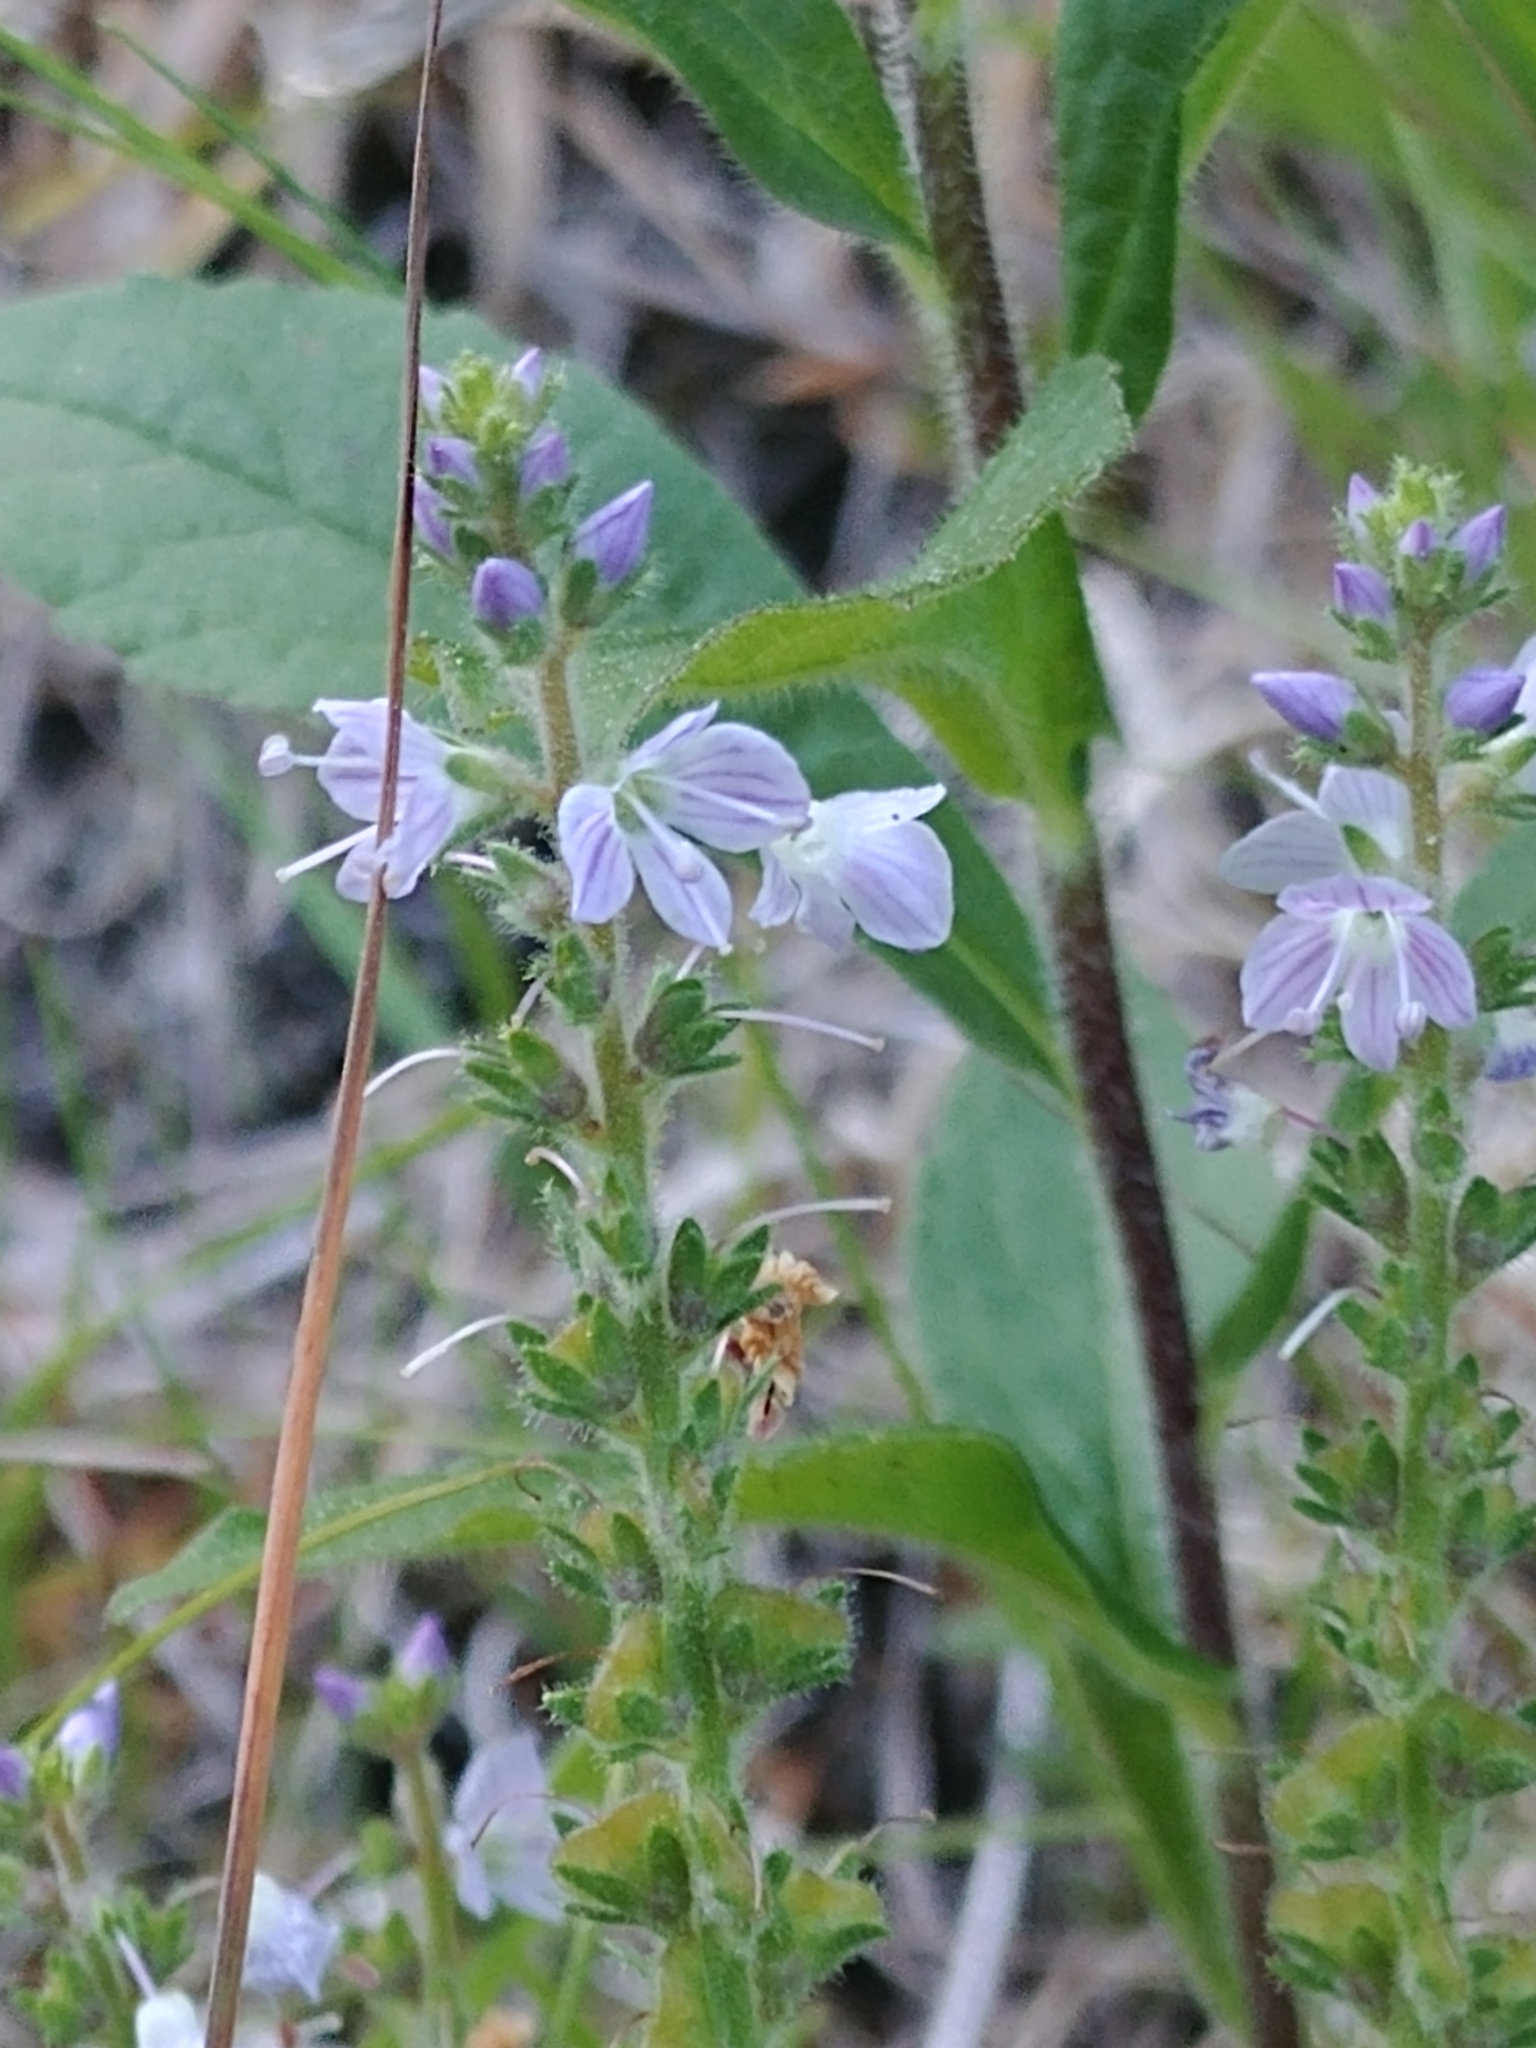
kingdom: Plantae
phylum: Tracheophyta
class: Magnoliopsida
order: Lamiales
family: Plantaginaceae
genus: Veronica
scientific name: Veronica officinalis
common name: Common speedwell
